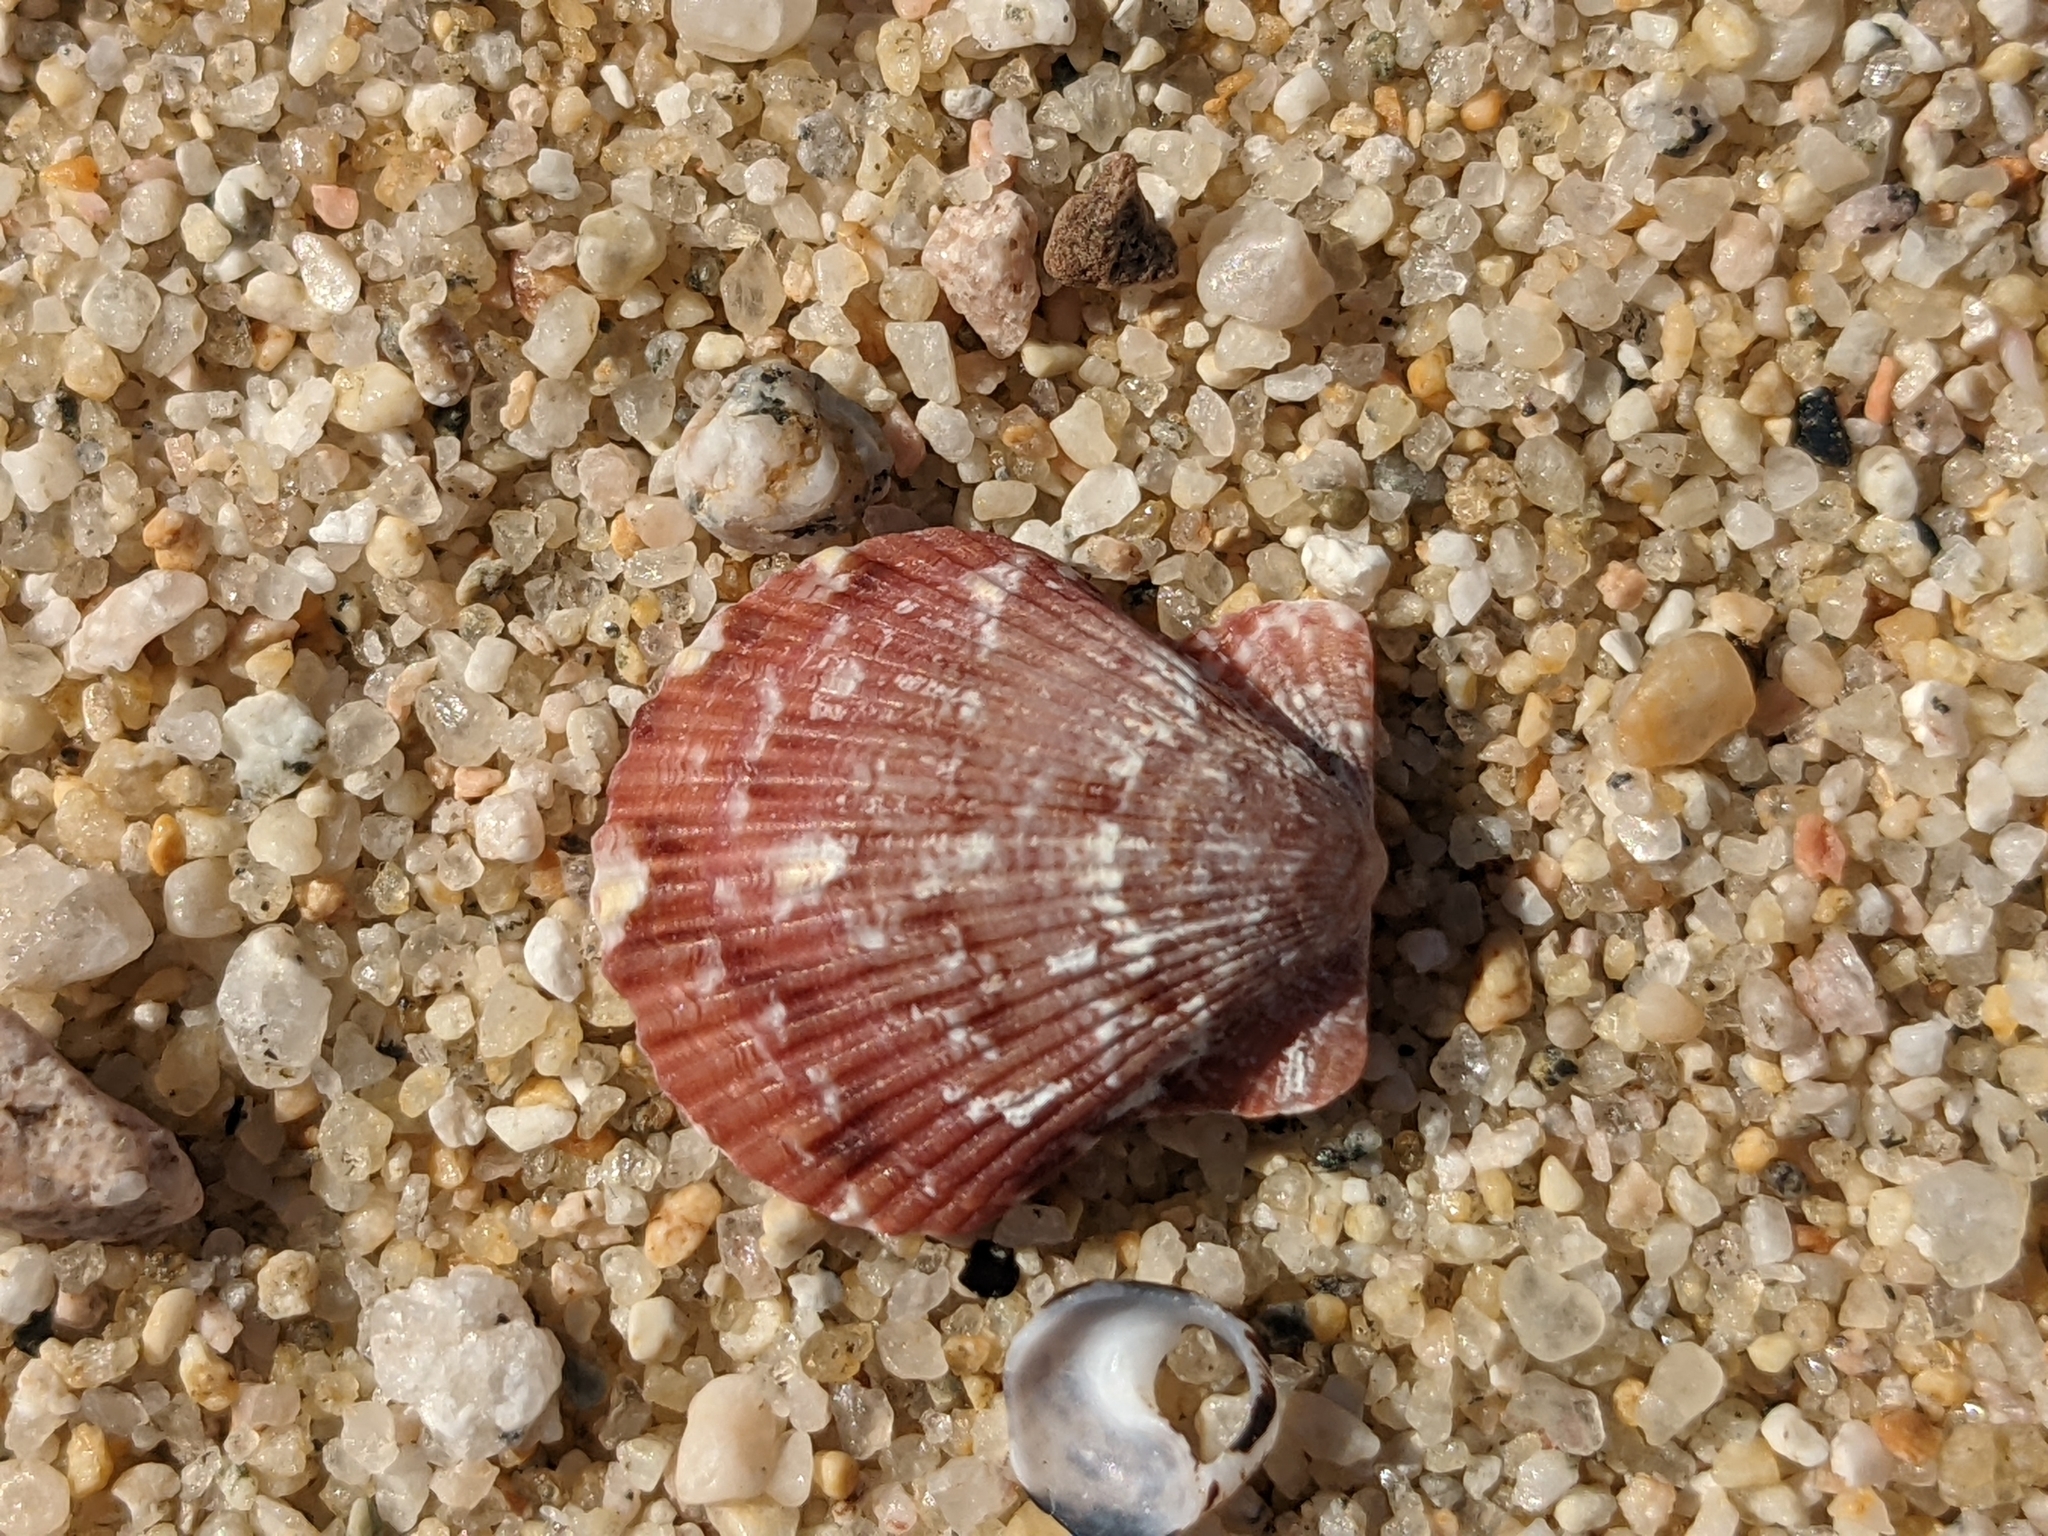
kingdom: Animalia
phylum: Mollusca
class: Bivalvia
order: Pectinida
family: Pectinidae
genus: Lindapecten
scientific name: Lindapecten muscosus
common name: Rough scallop
